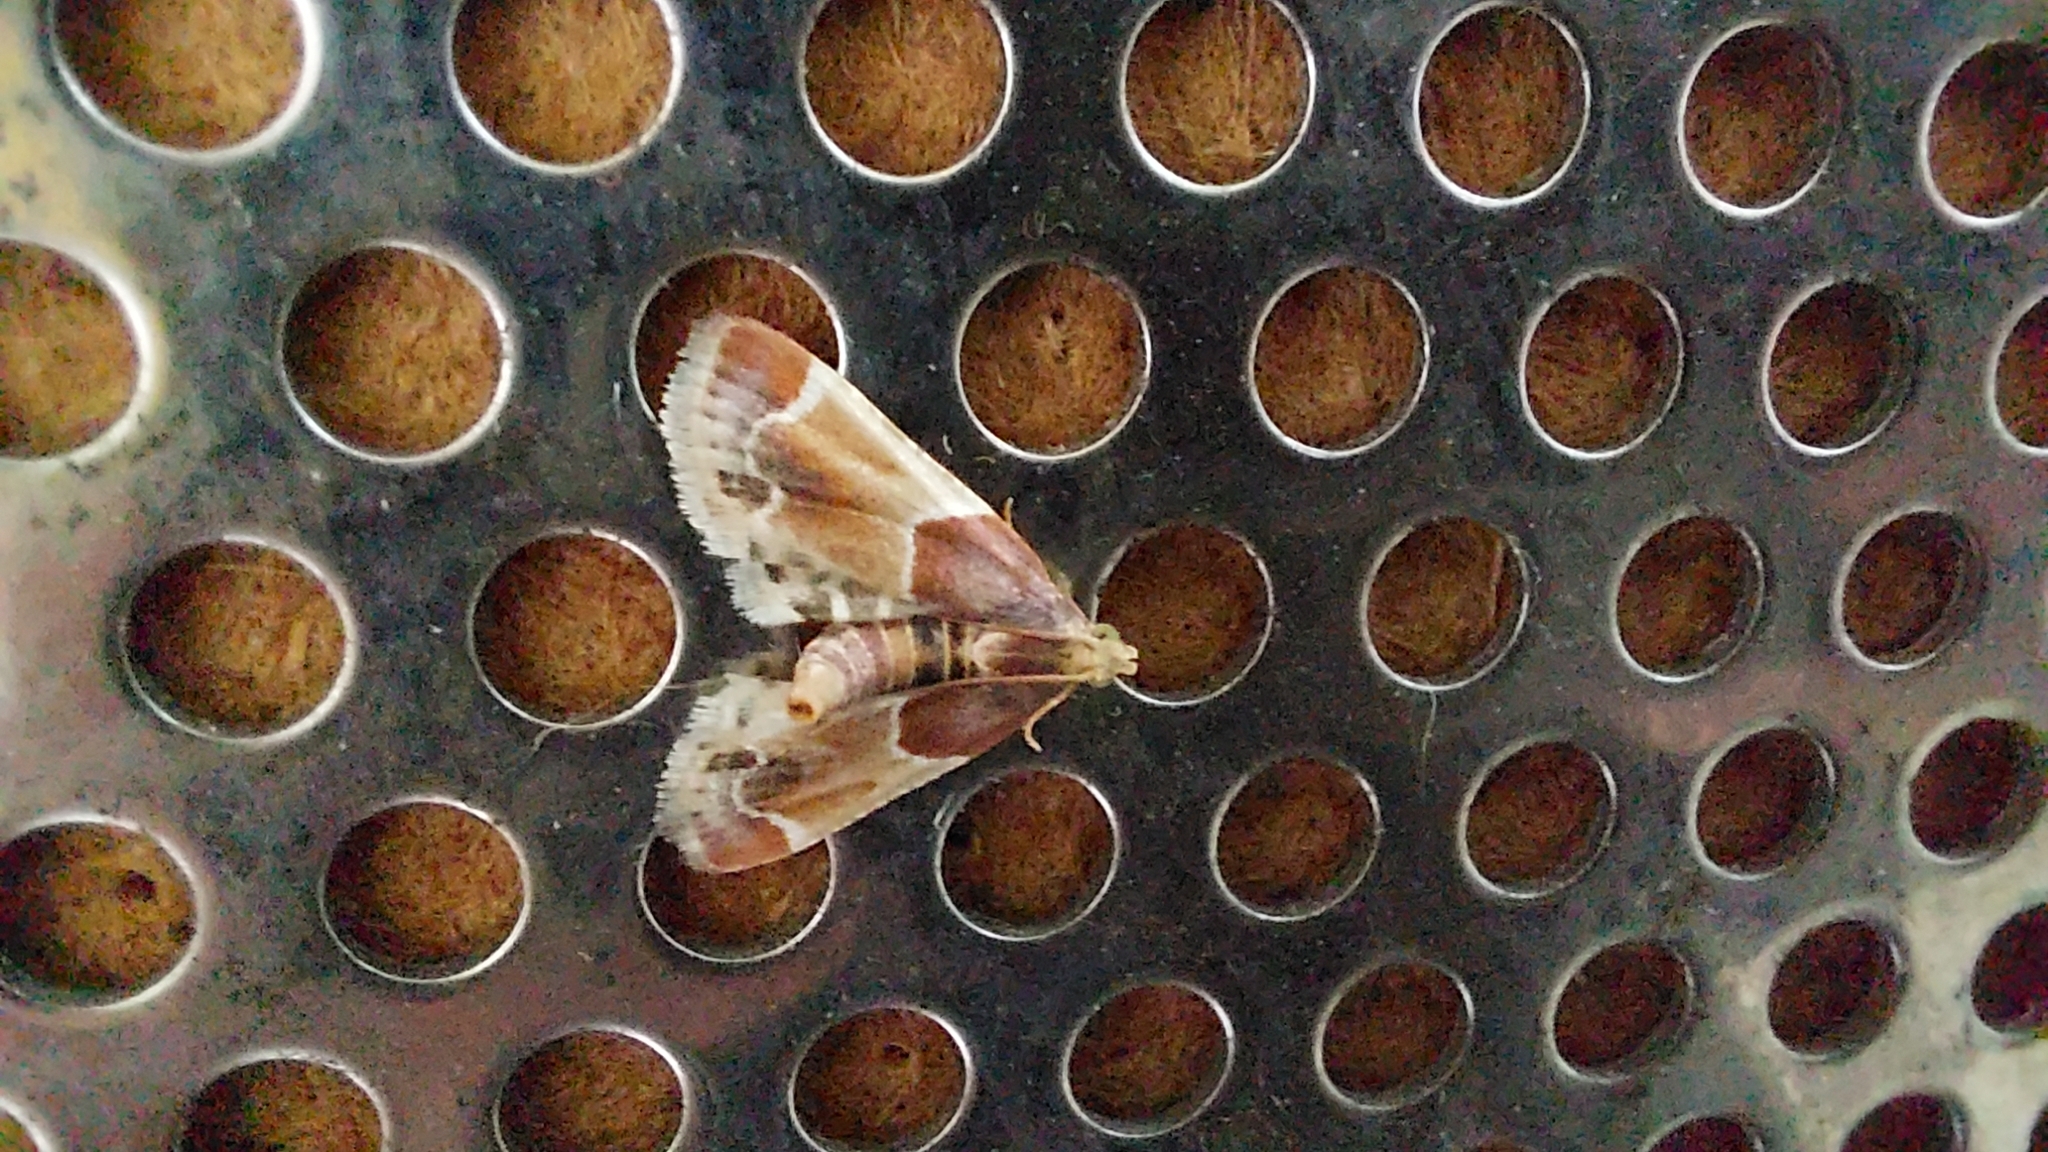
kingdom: Animalia
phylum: Arthropoda
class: Insecta
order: Lepidoptera
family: Pyralidae
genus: Pyralis
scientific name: Pyralis farinalis
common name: Meal moth
